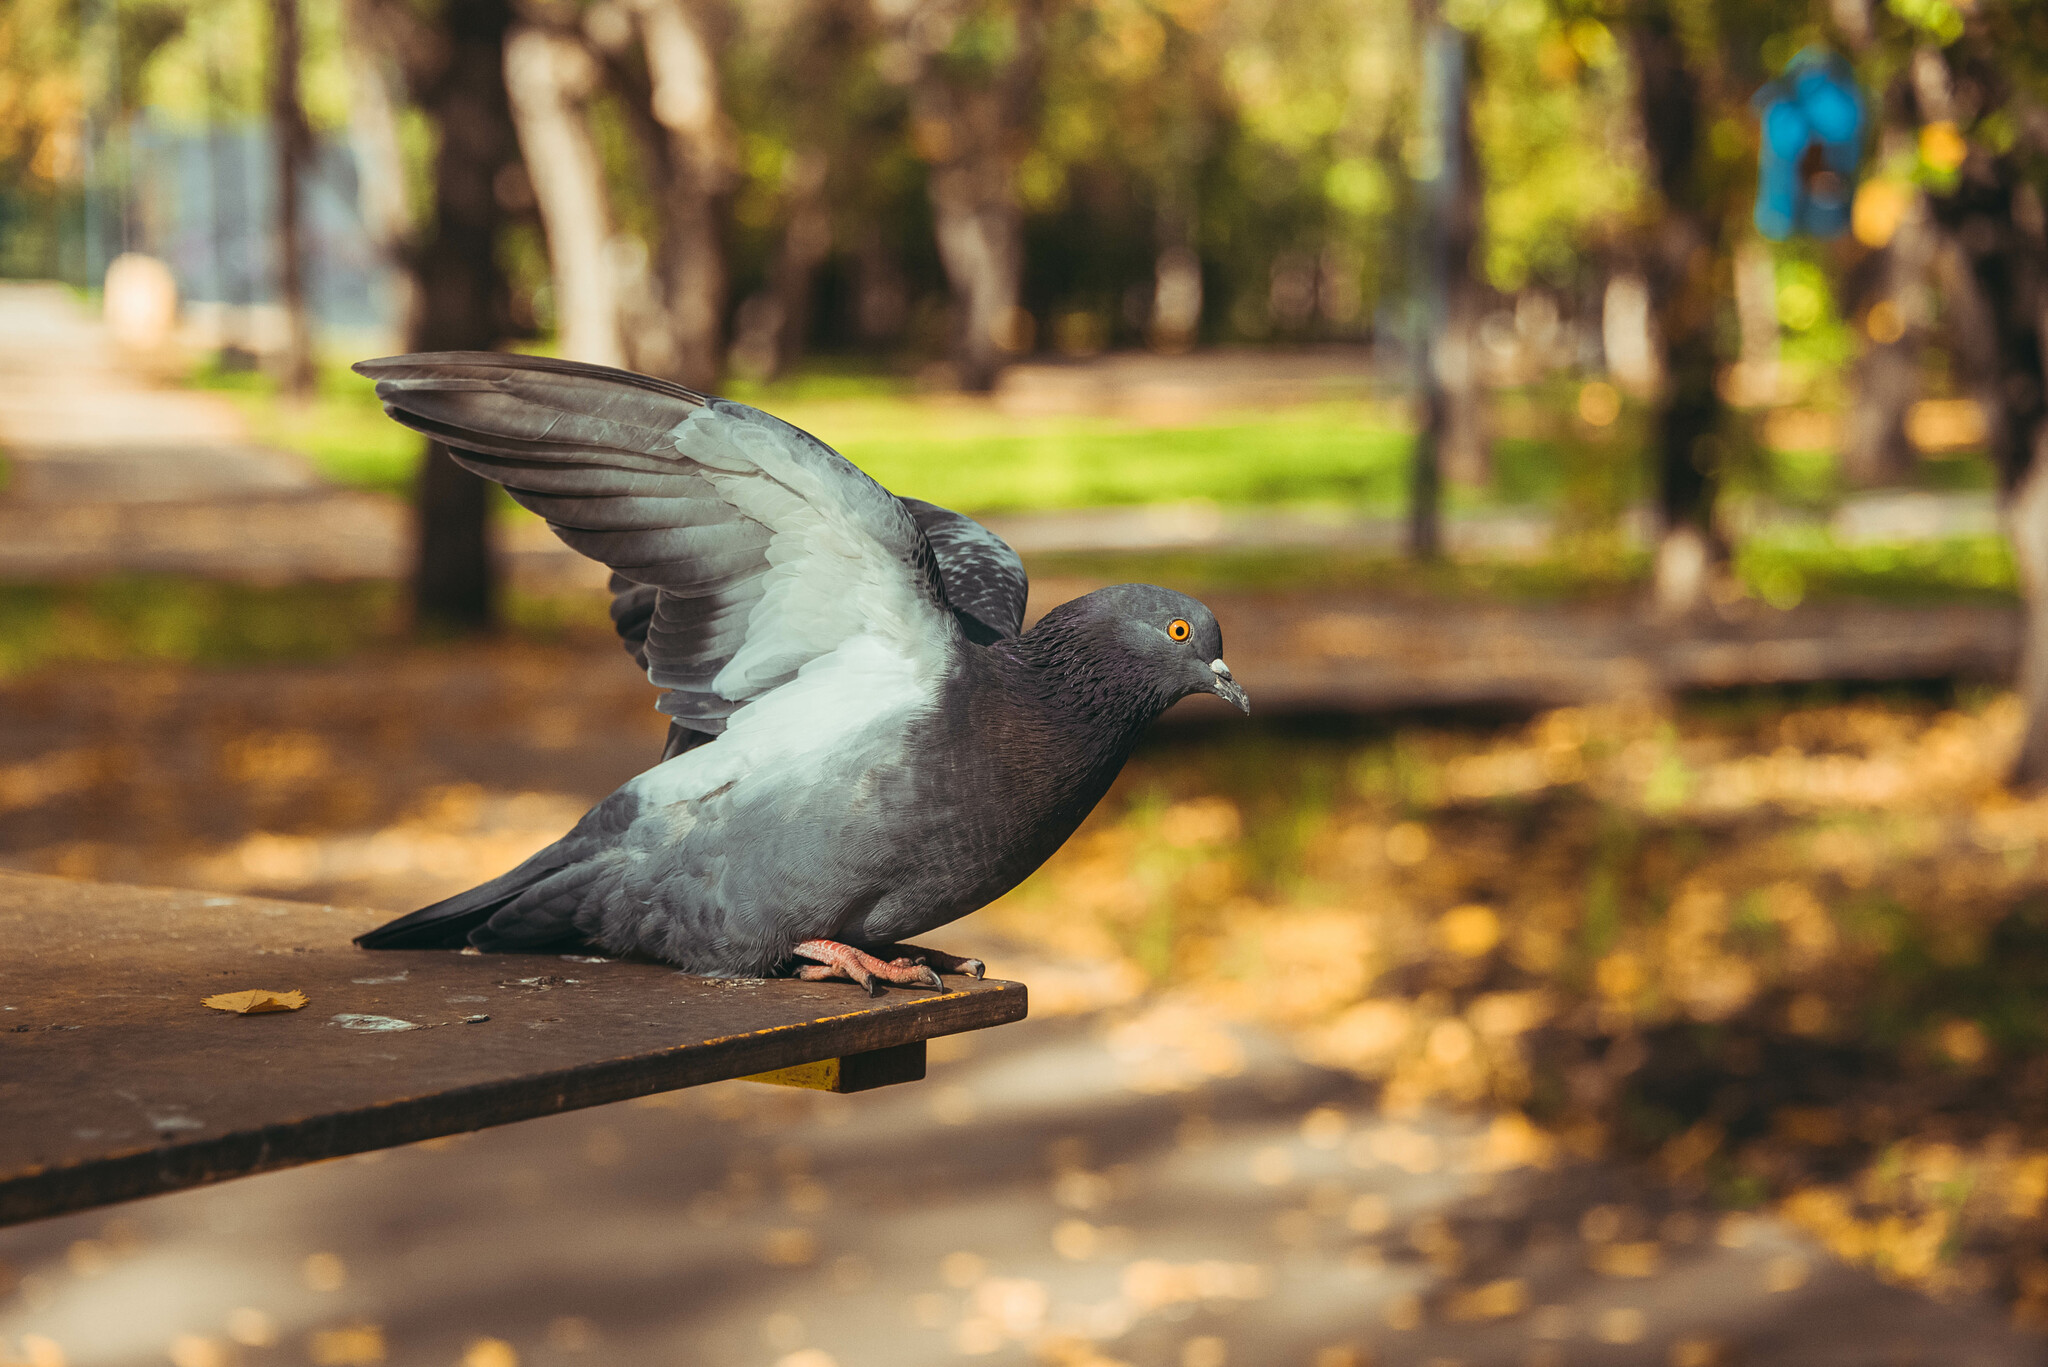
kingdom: Animalia
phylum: Chordata
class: Aves
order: Columbiformes
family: Columbidae
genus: Columba
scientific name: Columba livia
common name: Rock pigeon
